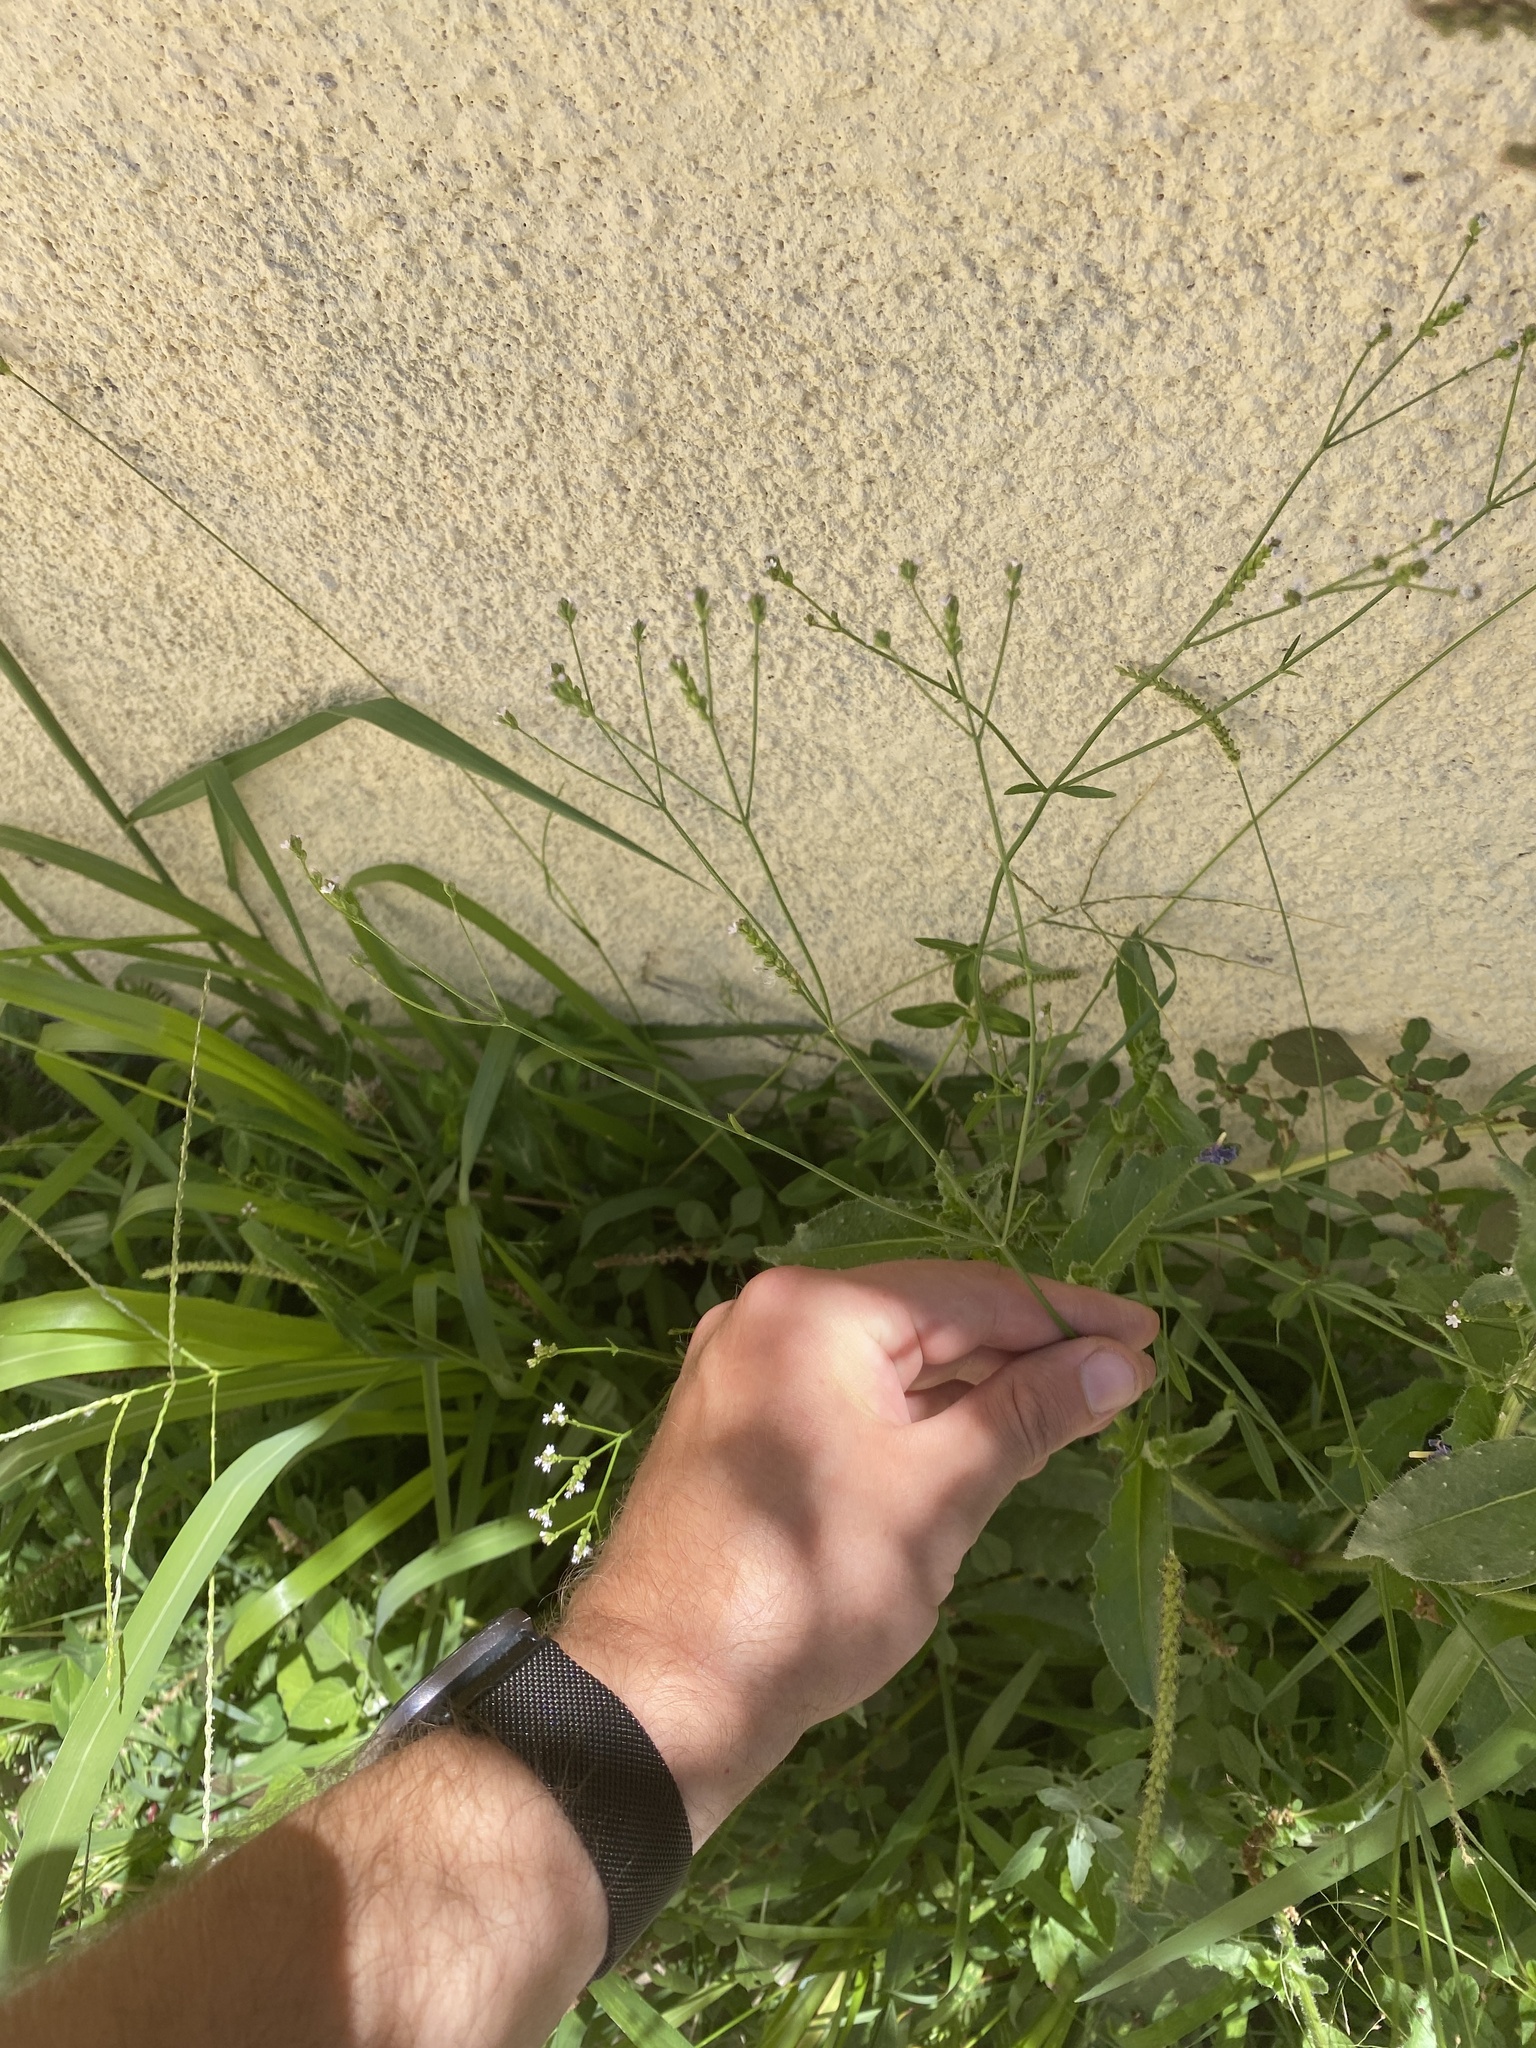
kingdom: Plantae
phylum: Tracheophyta
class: Magnoliopsida
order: Lamiales
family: Verbenaceae
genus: Verbena
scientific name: Verbena montevidensis
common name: Uruguayan vervain
